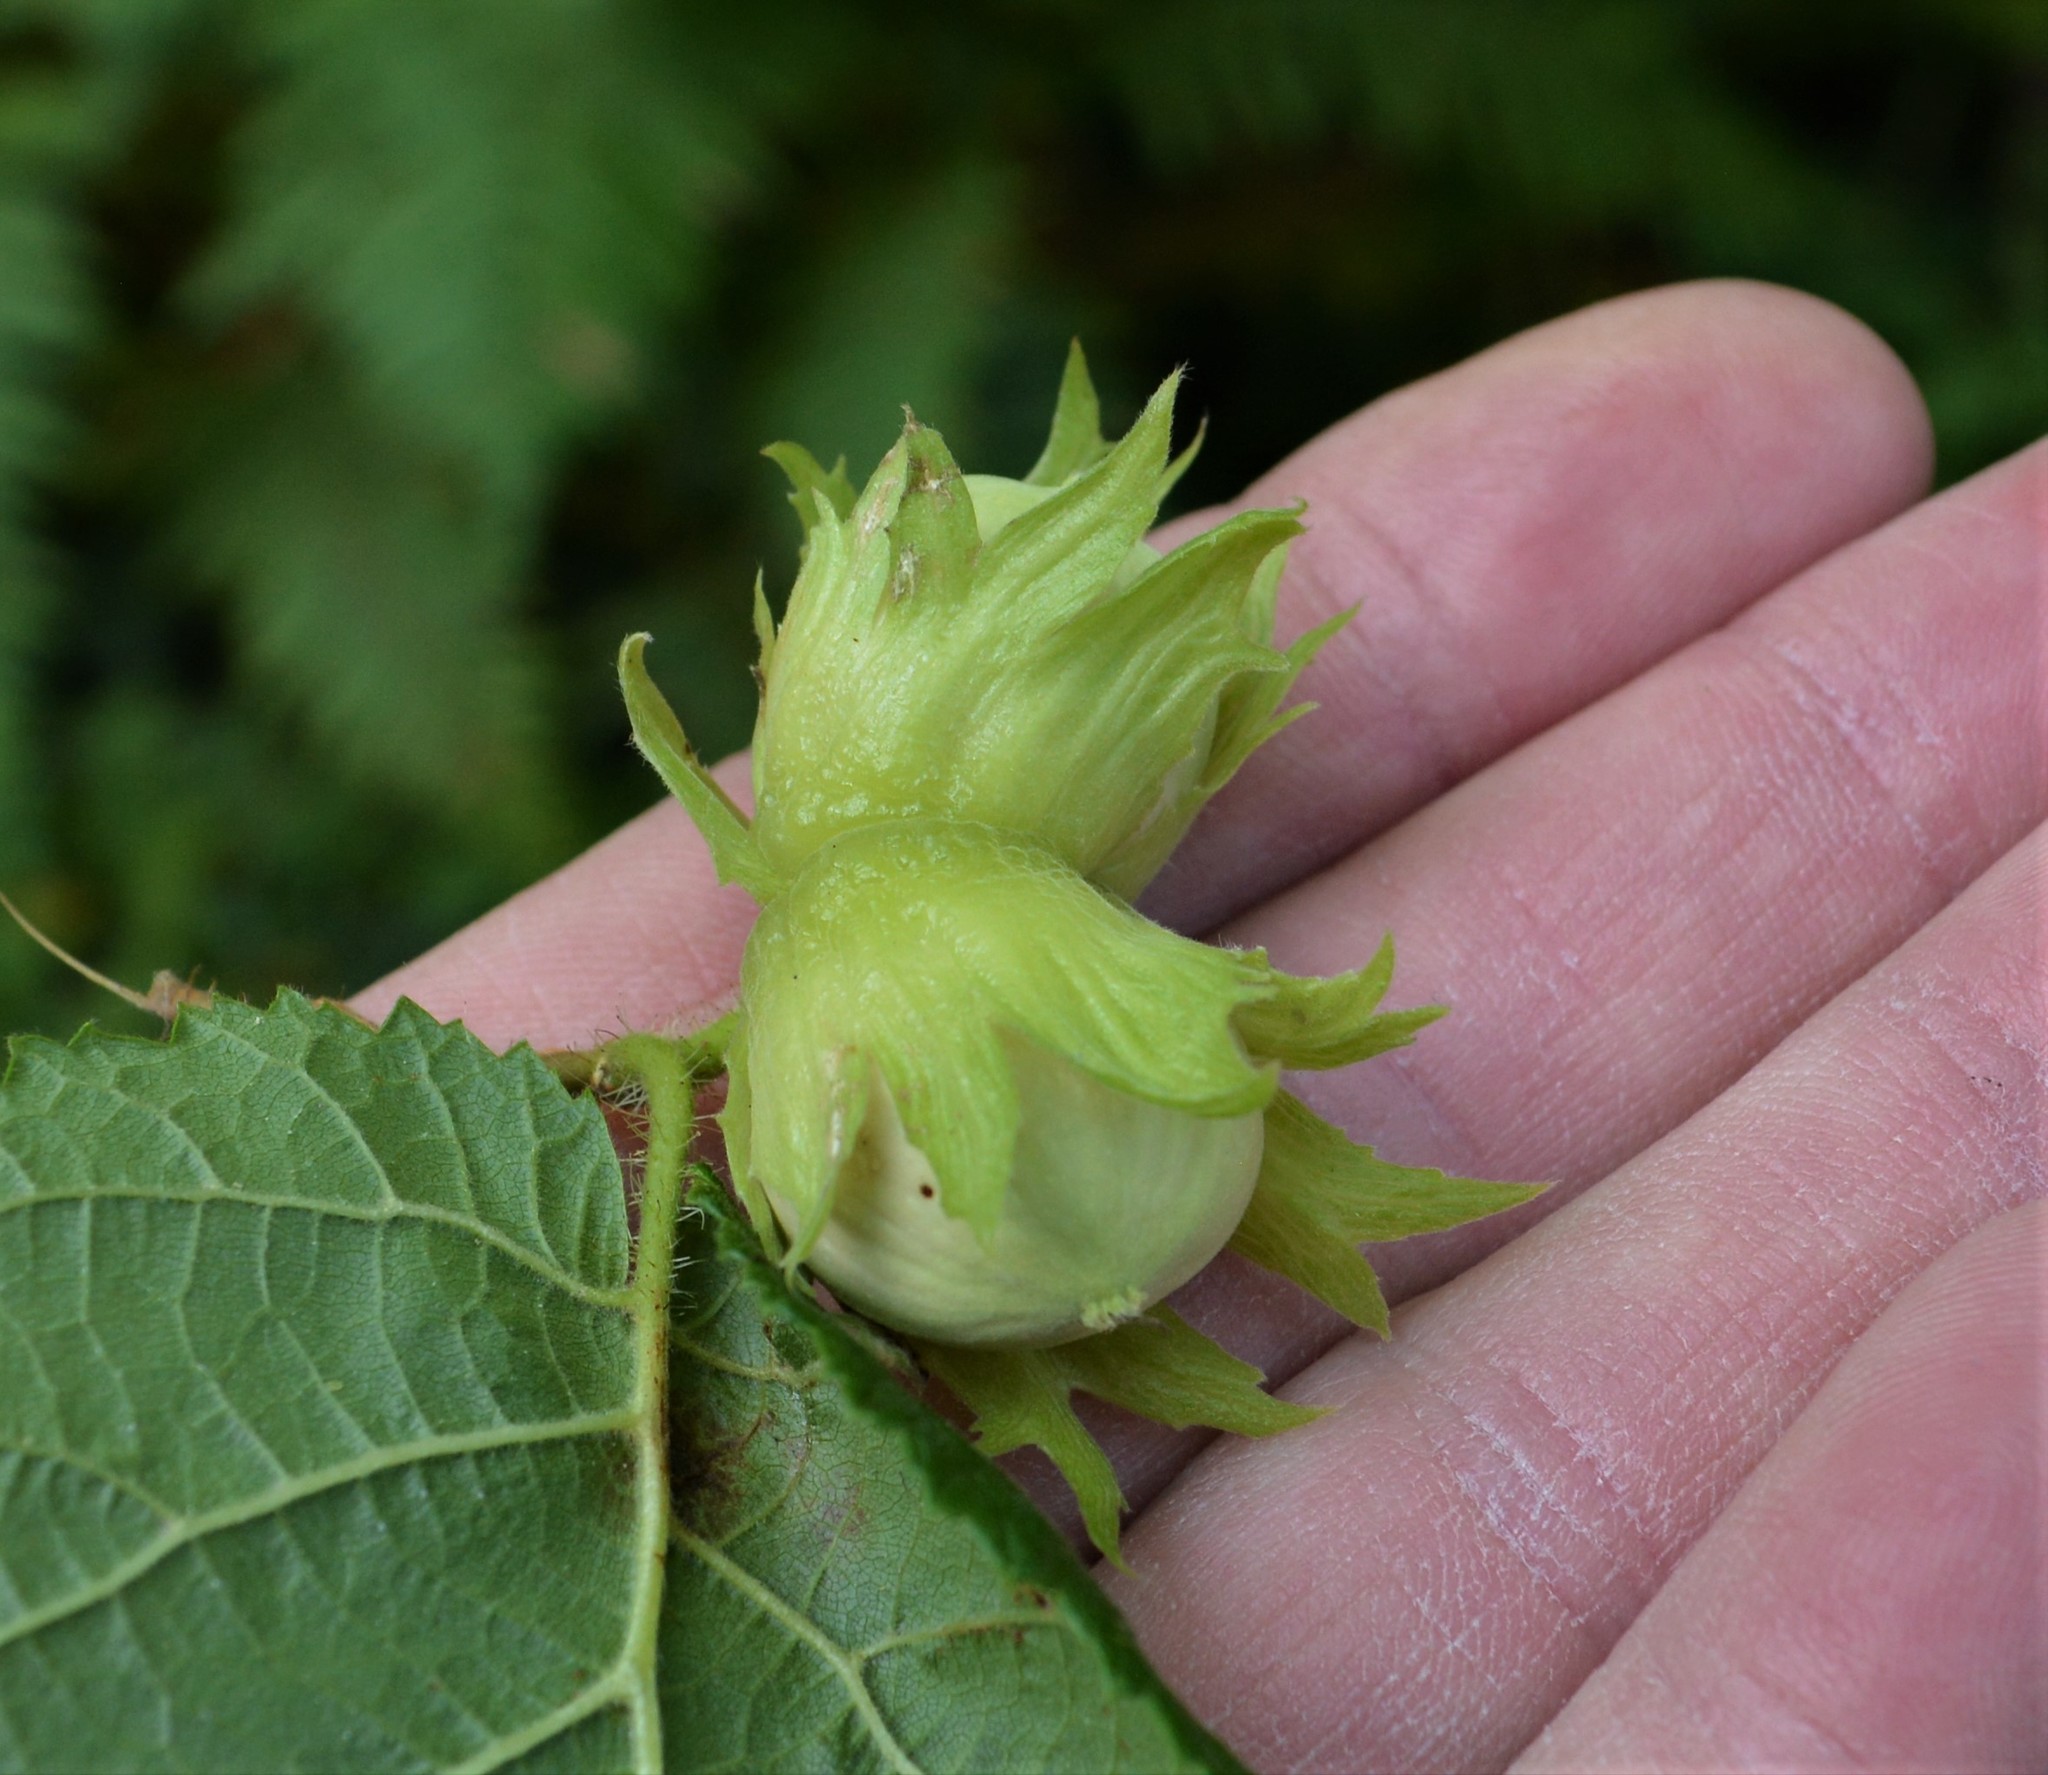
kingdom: Plantae
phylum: Tracheophyta
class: Magnoliopsida
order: Fagales
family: Betulaceae
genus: Corylus
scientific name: Corylus avellana
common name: European hazel
